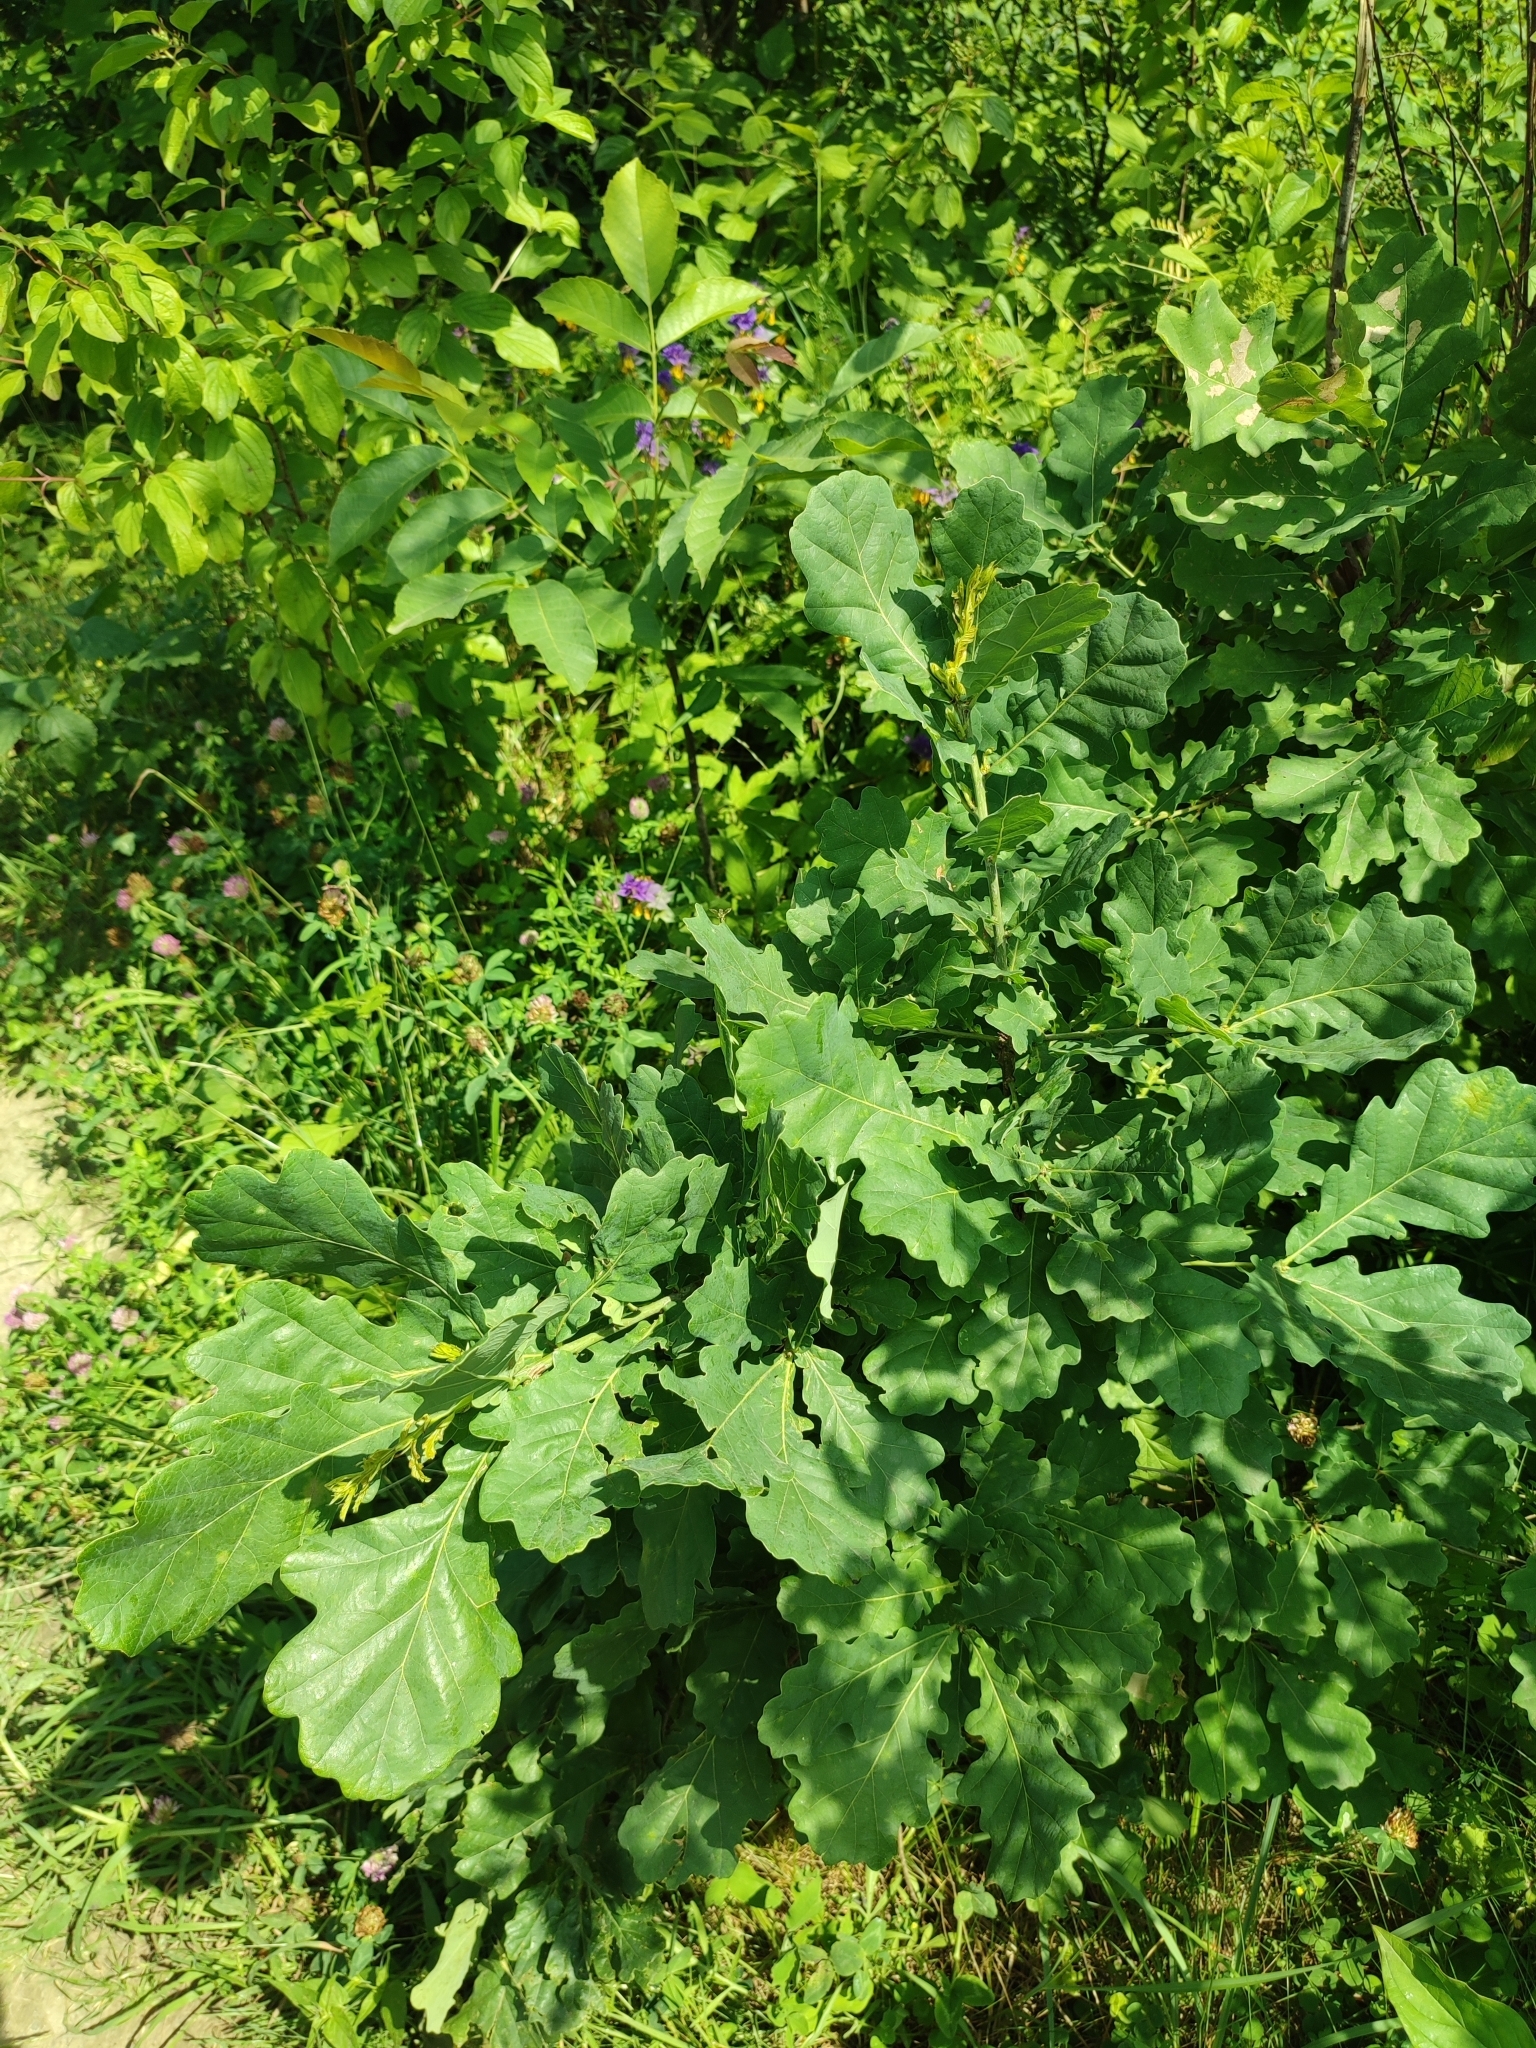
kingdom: Plantae
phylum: Tracheophyta
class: Magnoliopsida
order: Fagales
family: Fagaceae
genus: Quercus
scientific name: Quercus robur
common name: Pedunculate oak
